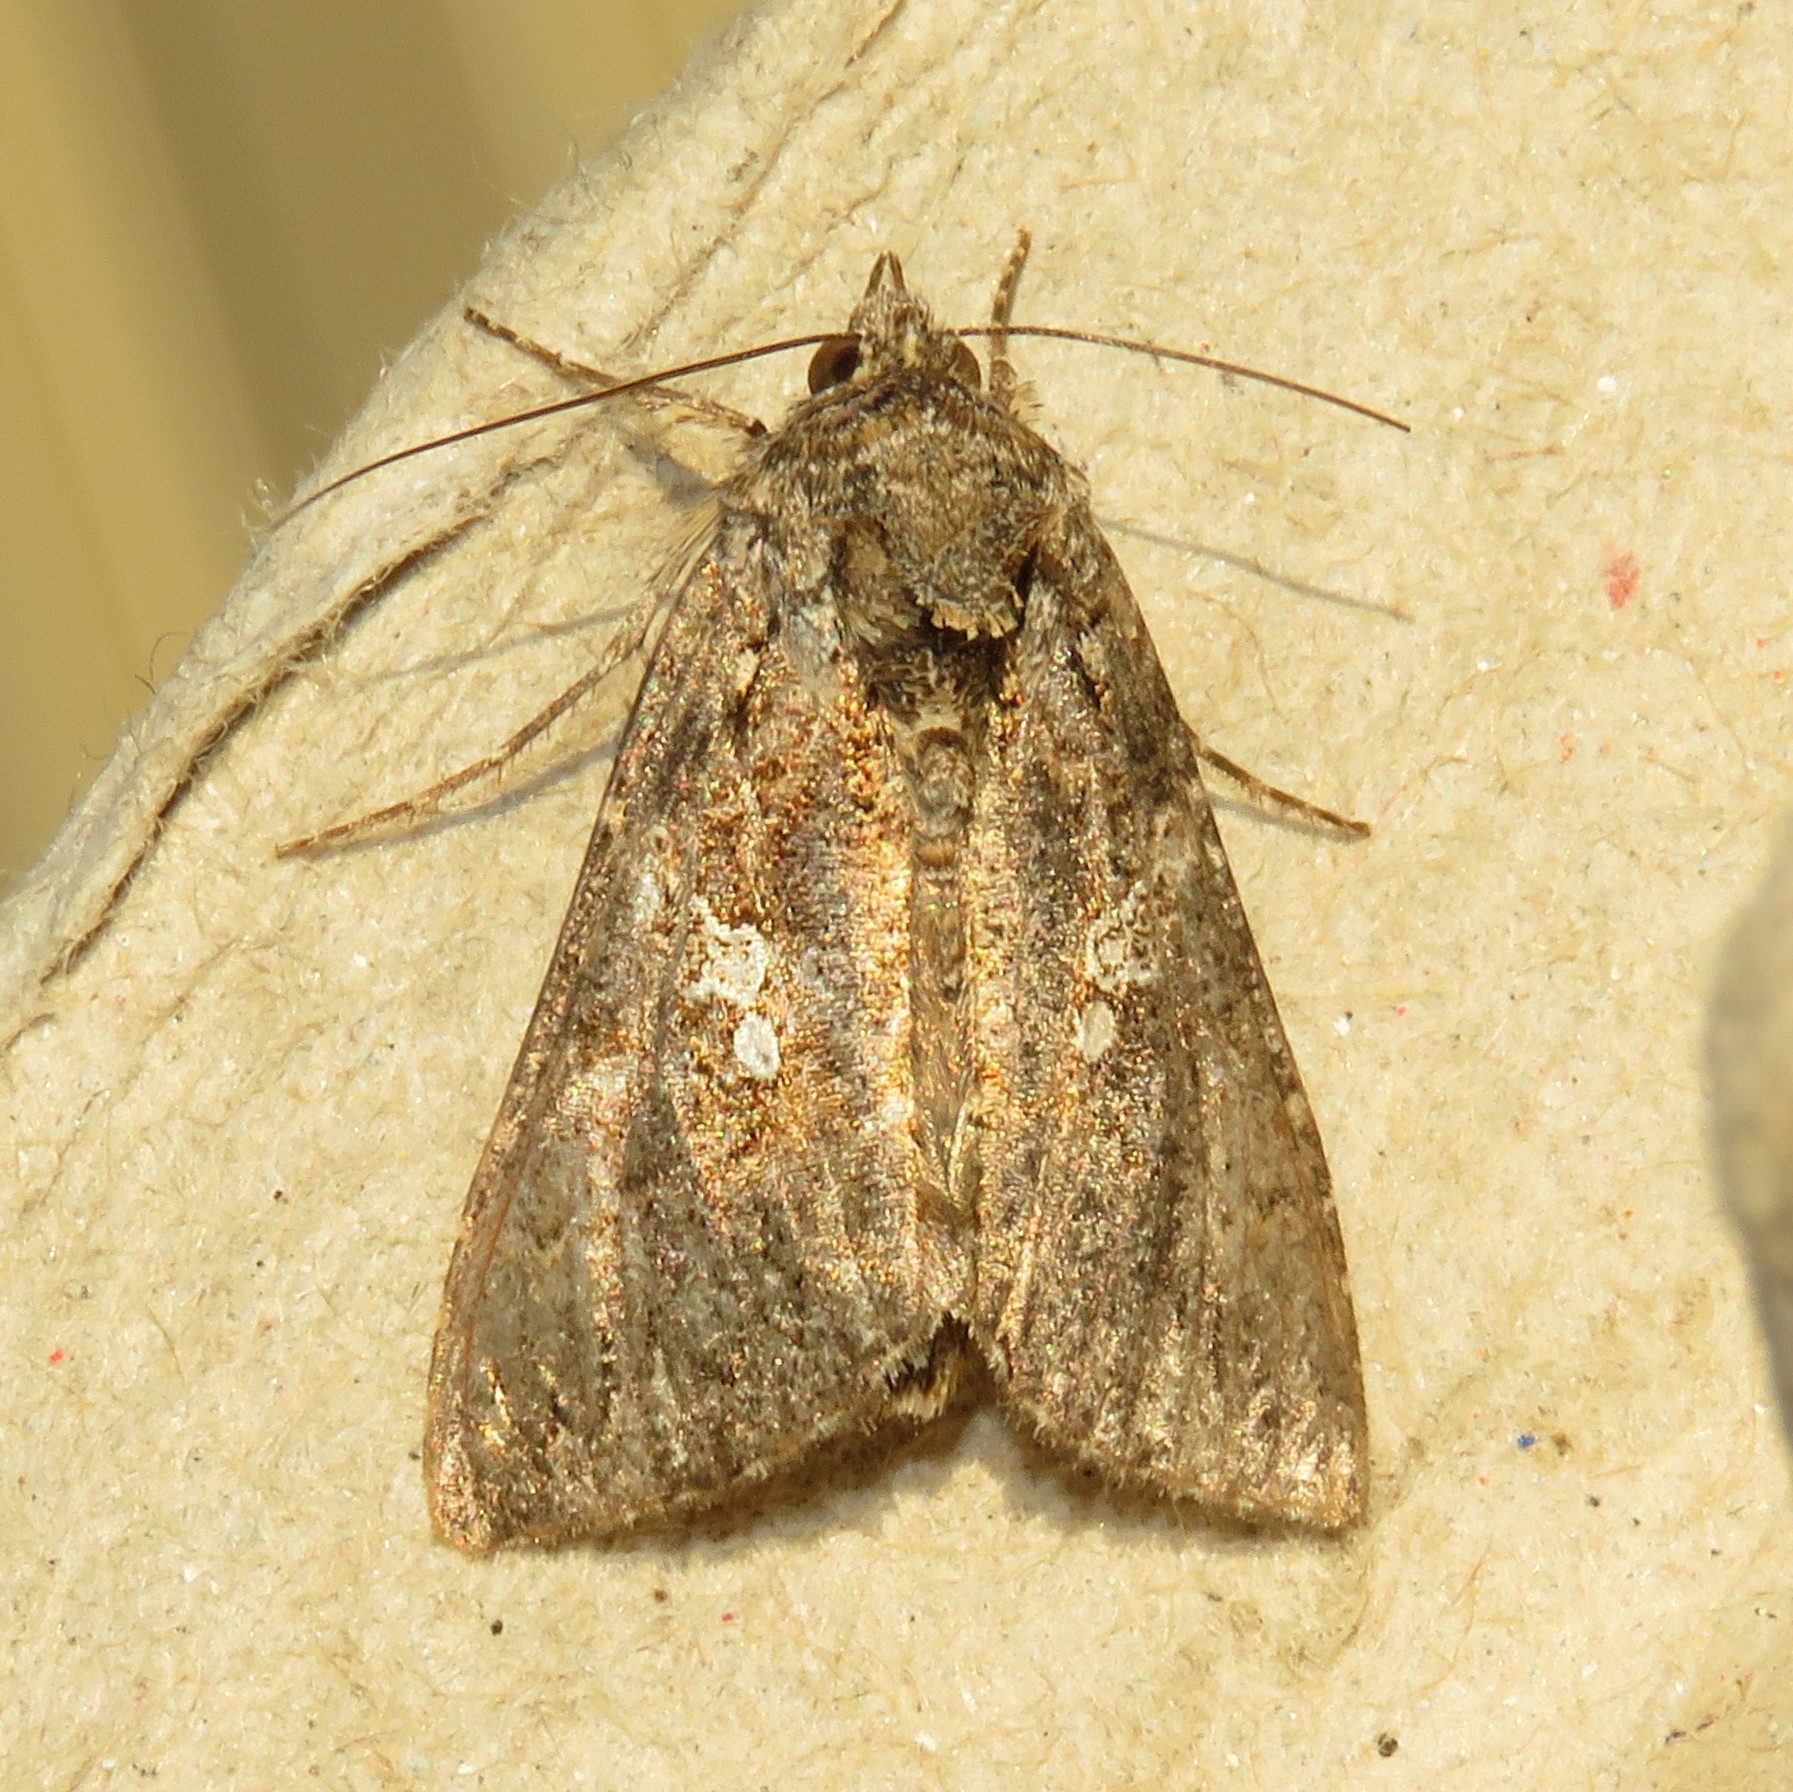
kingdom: Animalia
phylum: Arthropoda
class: Insecta
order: Lepidoptera
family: Noctuidae
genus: Trichoplusia
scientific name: Trichoplusia ni
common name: Ni moth
